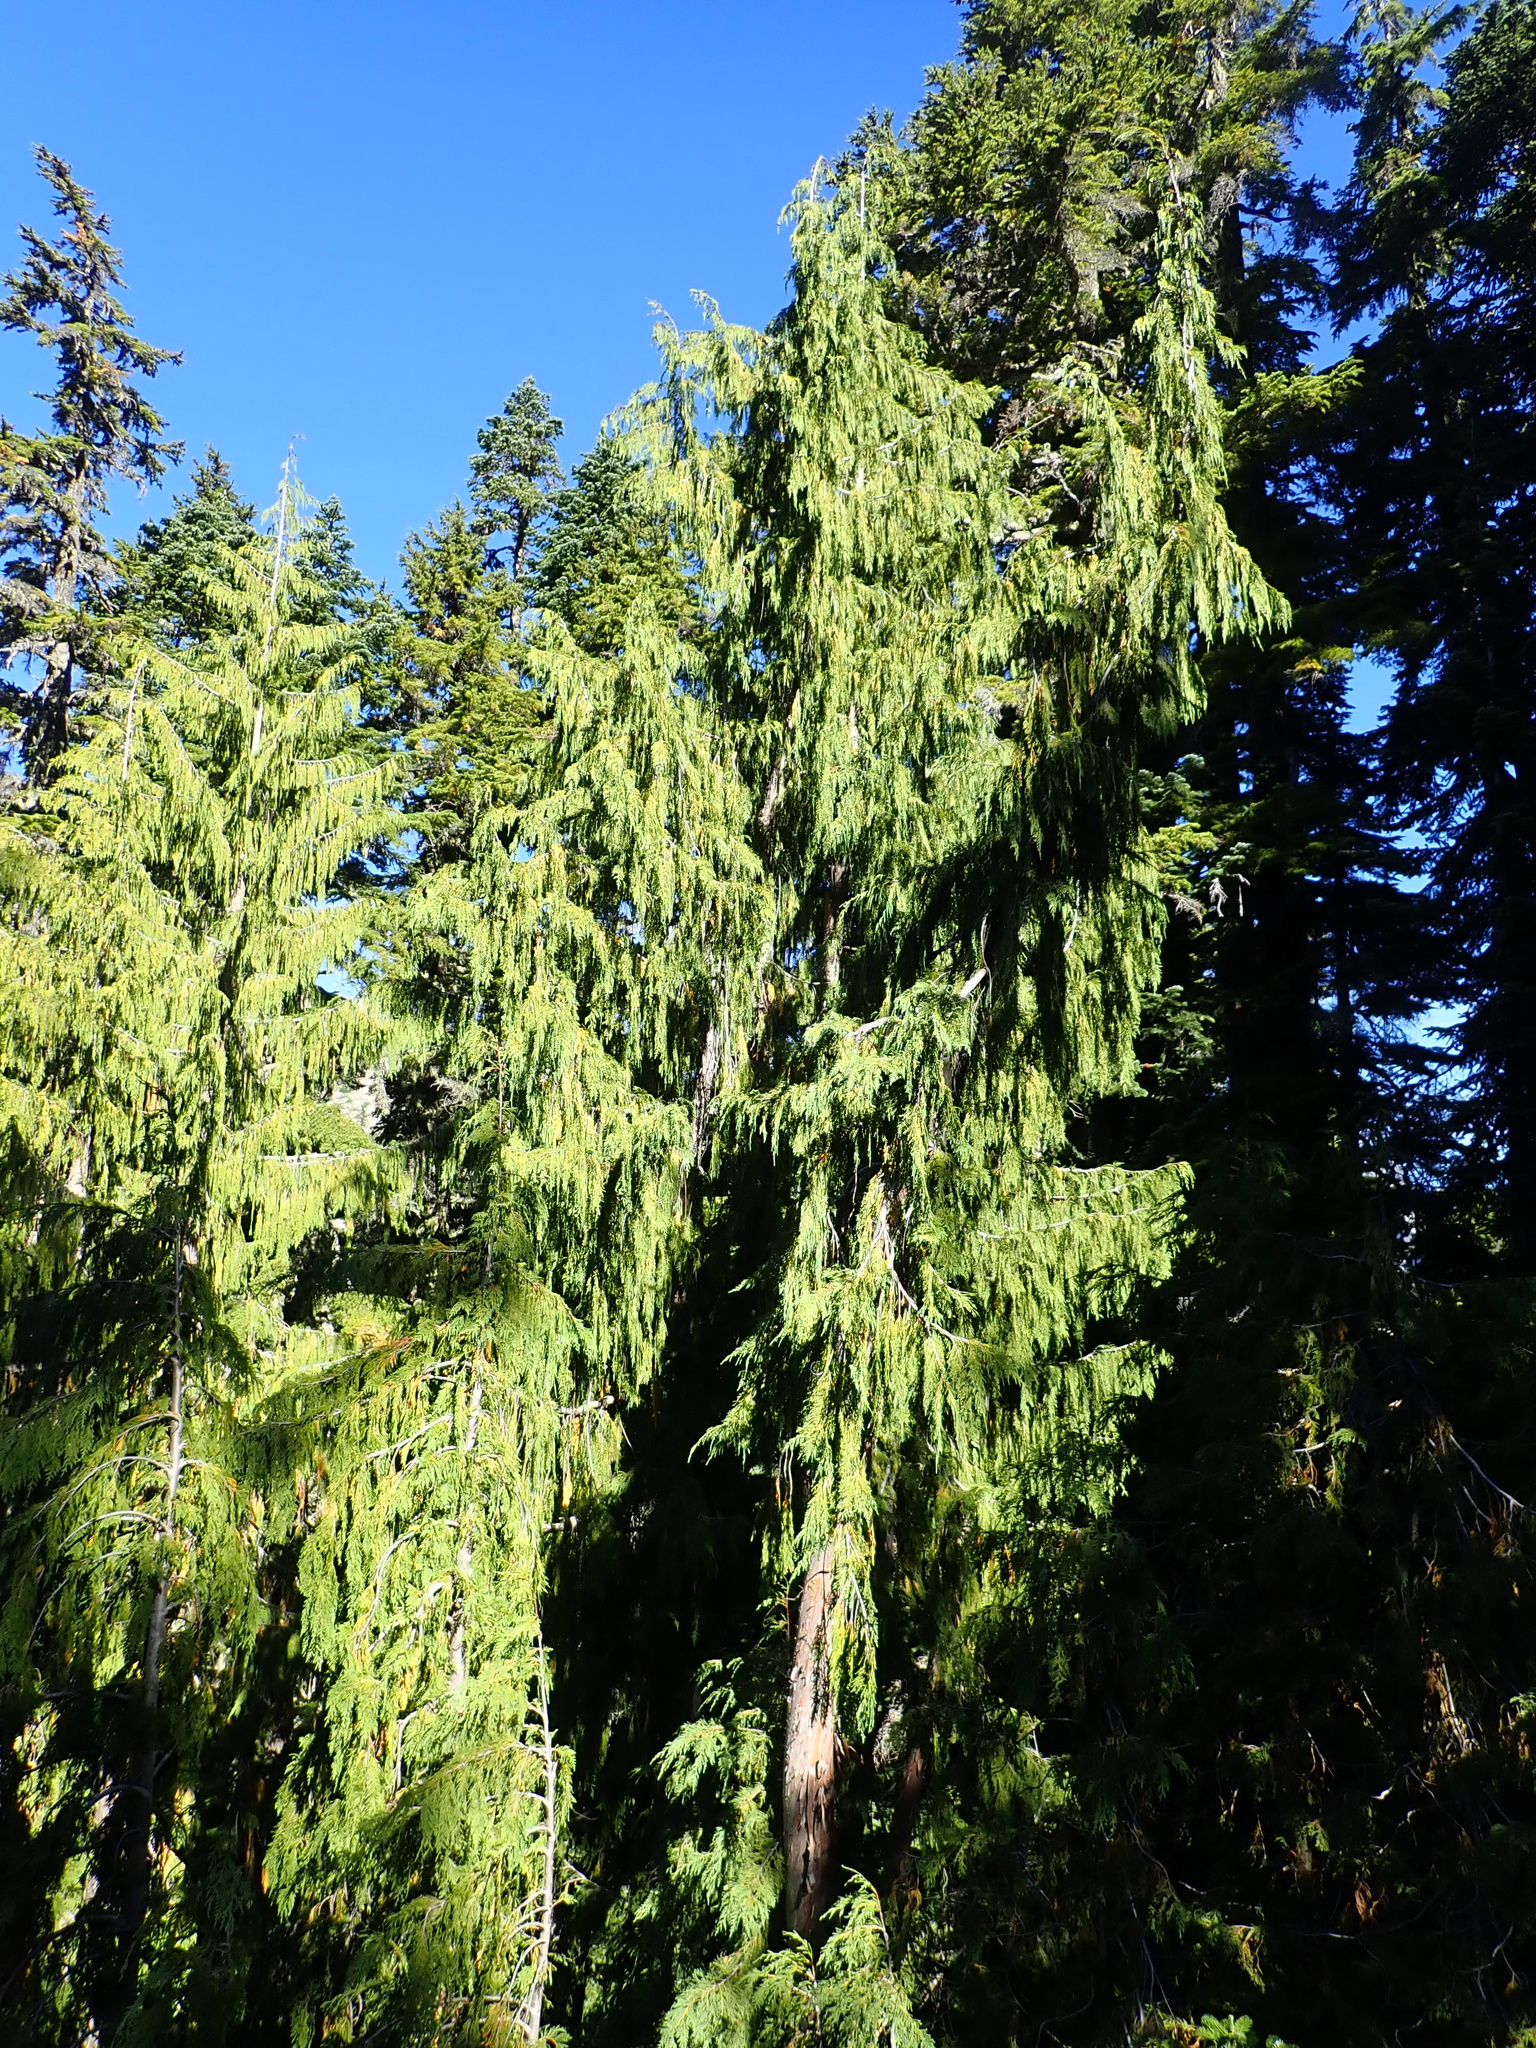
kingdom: Plantae
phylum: Tracheophyta
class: Pinopsida
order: Pinales
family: Cupressaceae
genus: Xanthocyparis
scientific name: Xanthocyparis nootkatensis
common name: Nootka cypress
